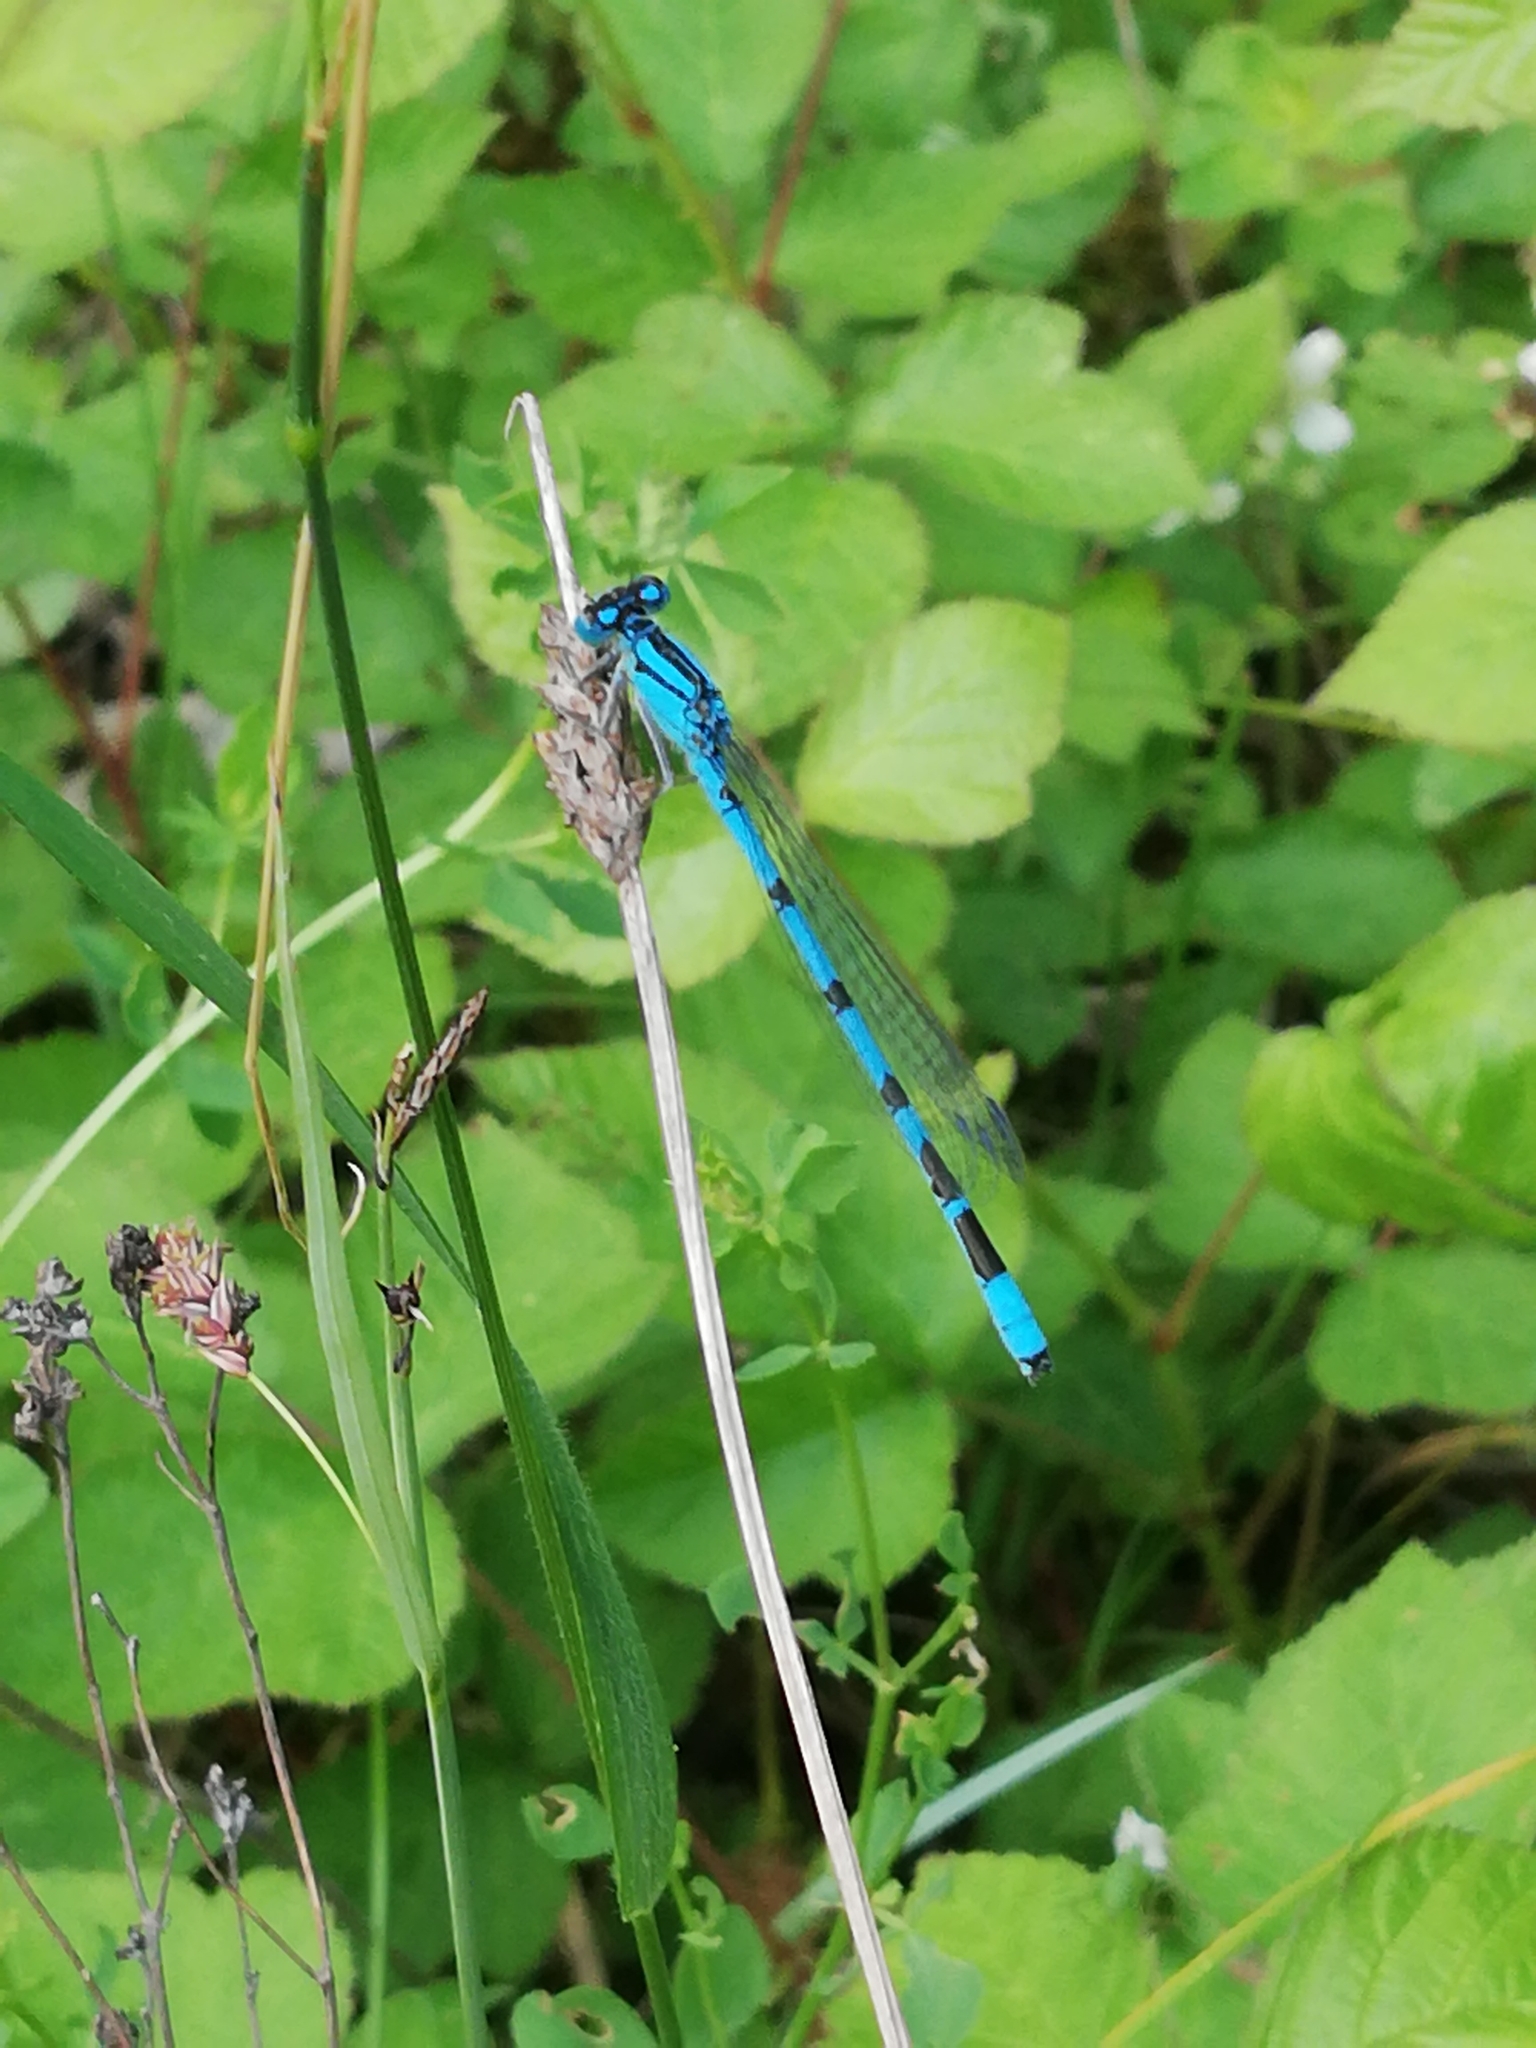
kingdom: Animalia
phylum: Arthropoda
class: Insecta
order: Odonata
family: Coenagrionidae
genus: Enallagma
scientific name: Enallagma cyathigerum
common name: Common blue damselfly
